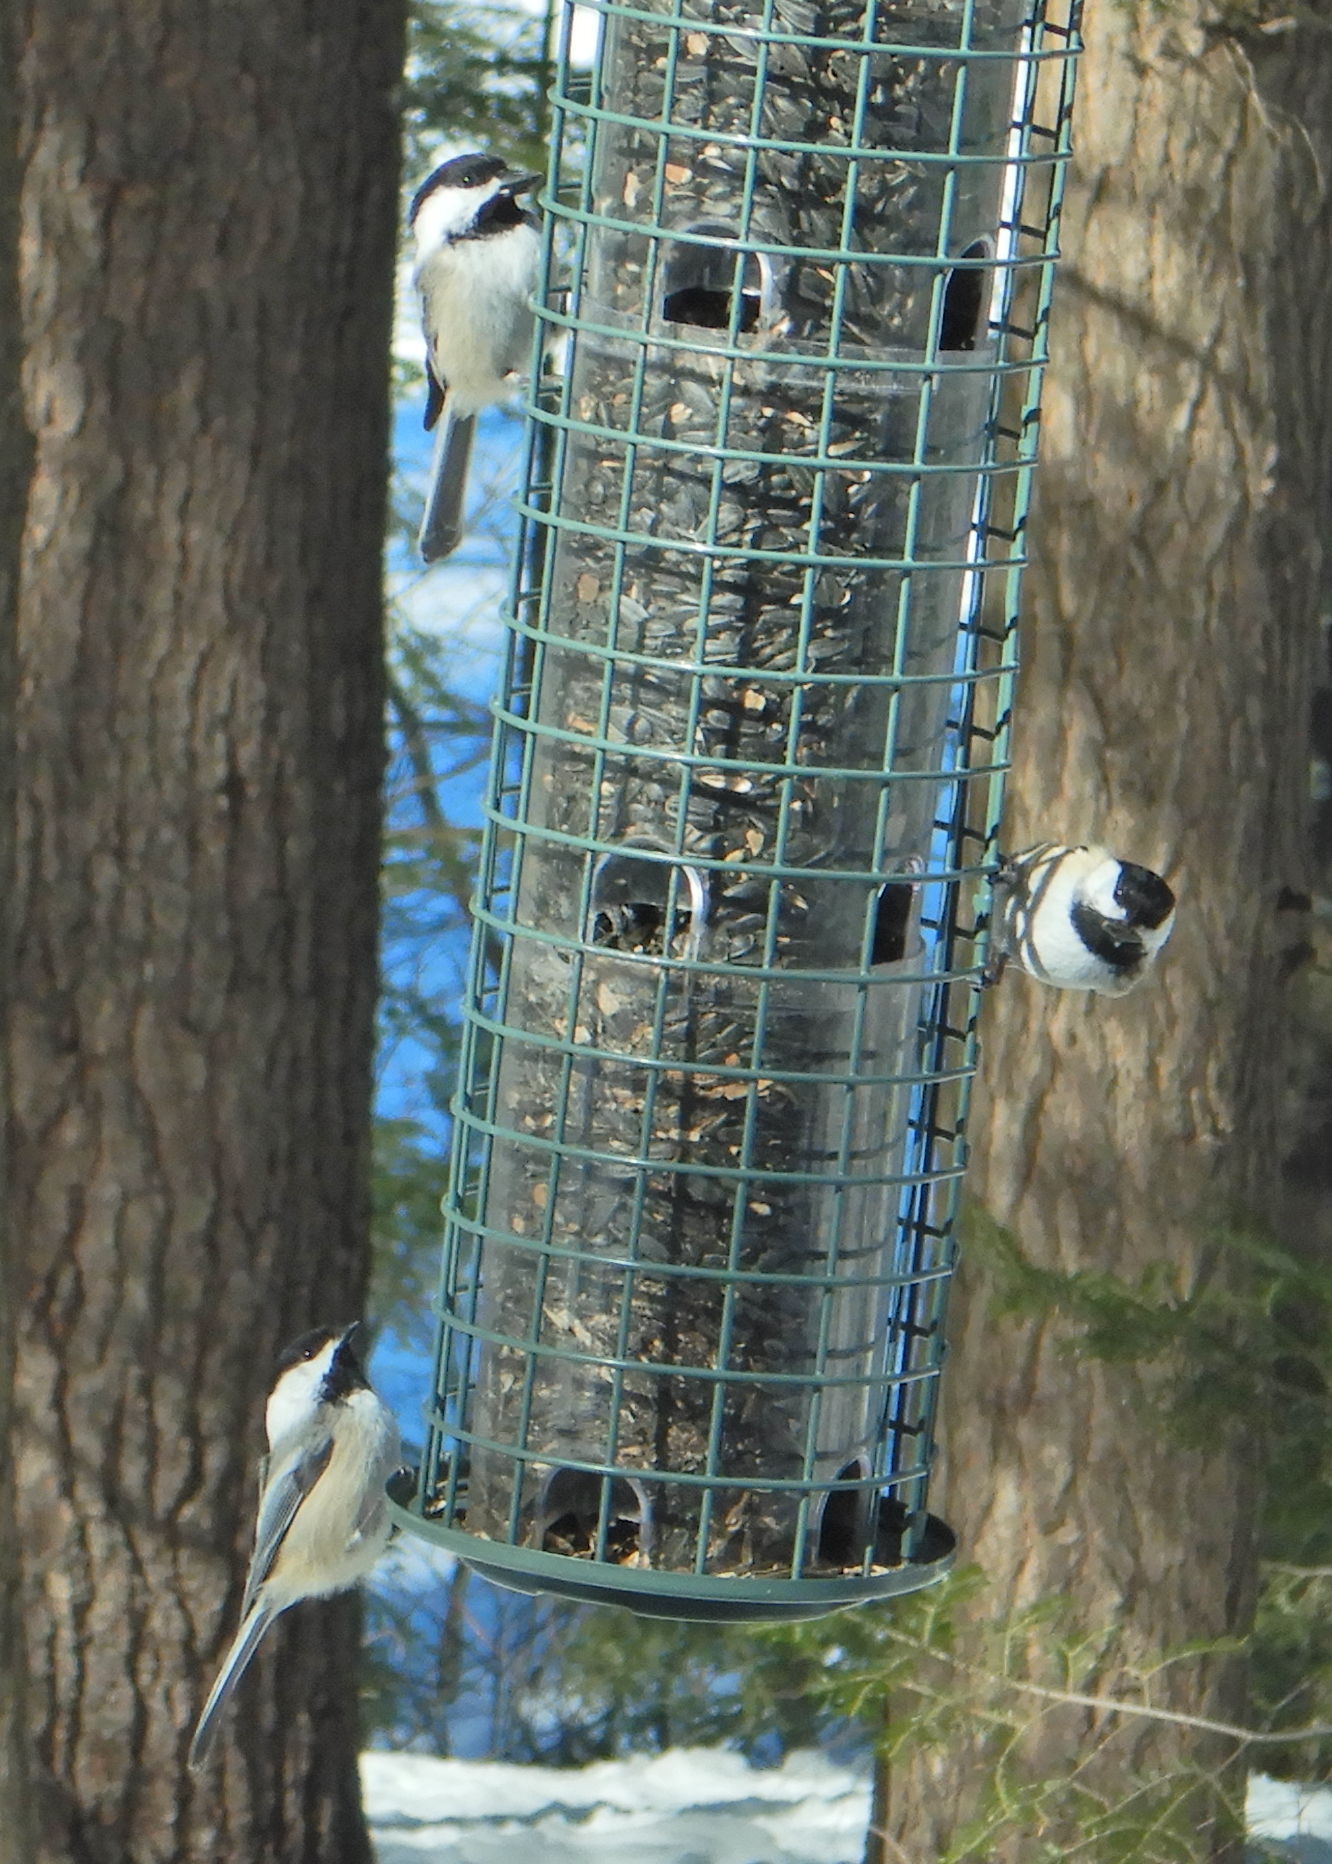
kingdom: Animalia
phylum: Chordata
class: Aves
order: Passeriformes
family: Paridae
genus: Poecile
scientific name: Poecile atricapillus
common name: Black-capped chickadee
